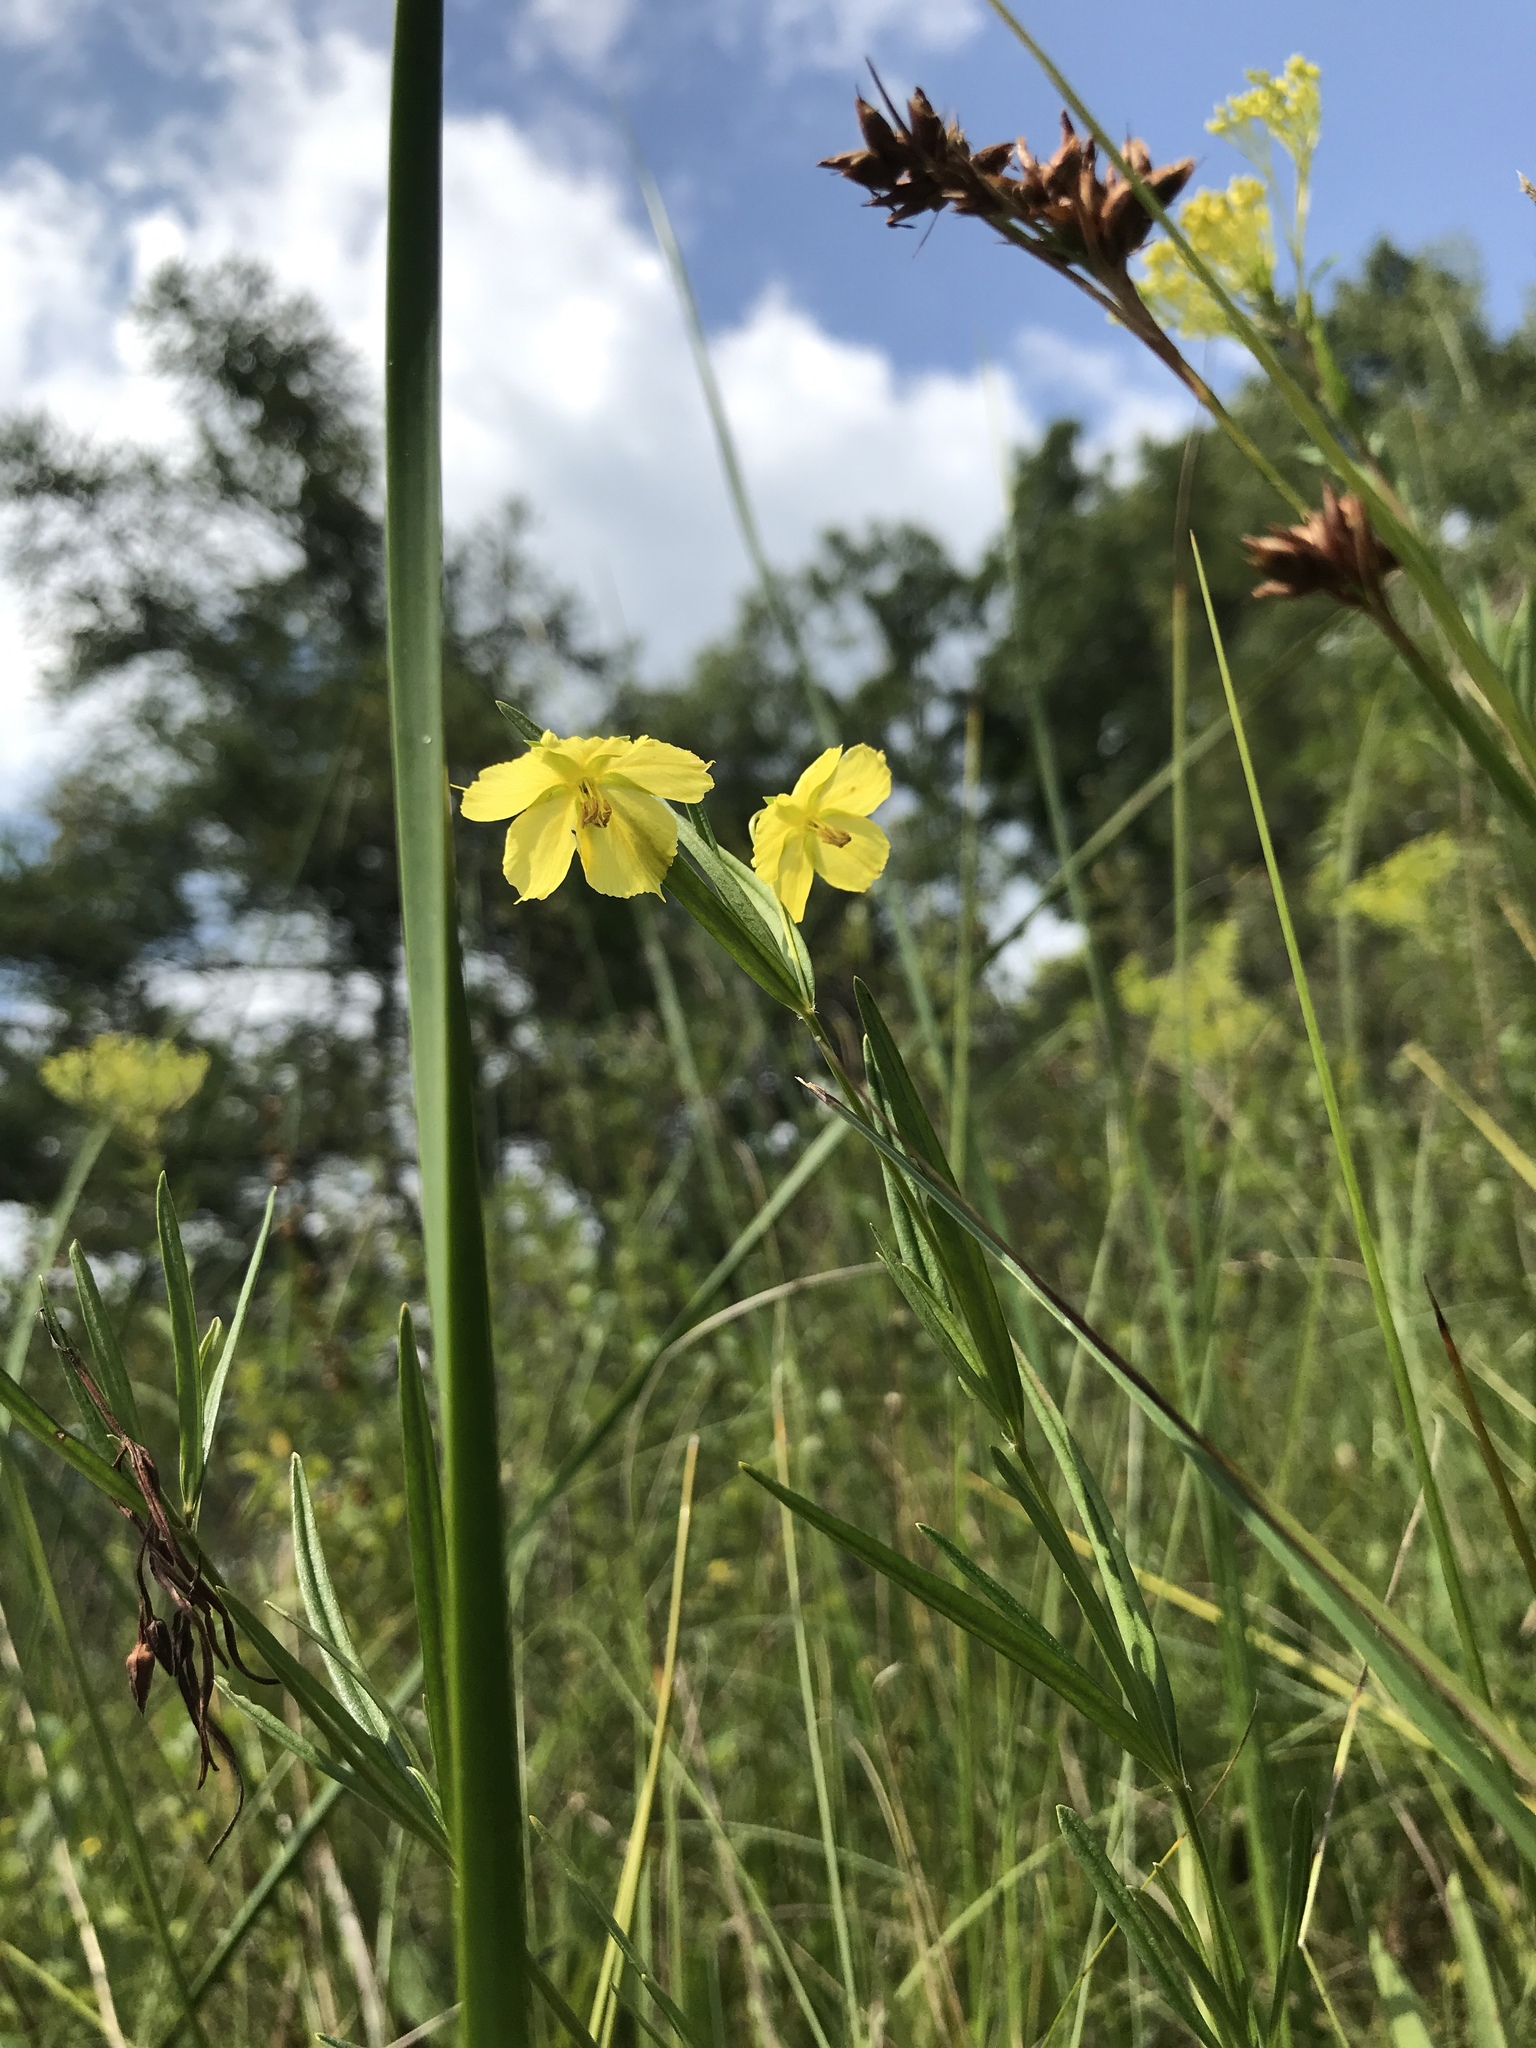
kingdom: Plantae
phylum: Tracheophyta
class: Magnoliopsida
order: Ericales
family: Primulaceae
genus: Lysimachia
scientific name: Lysimachia quadriflora
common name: Four-flowered loosestrife
